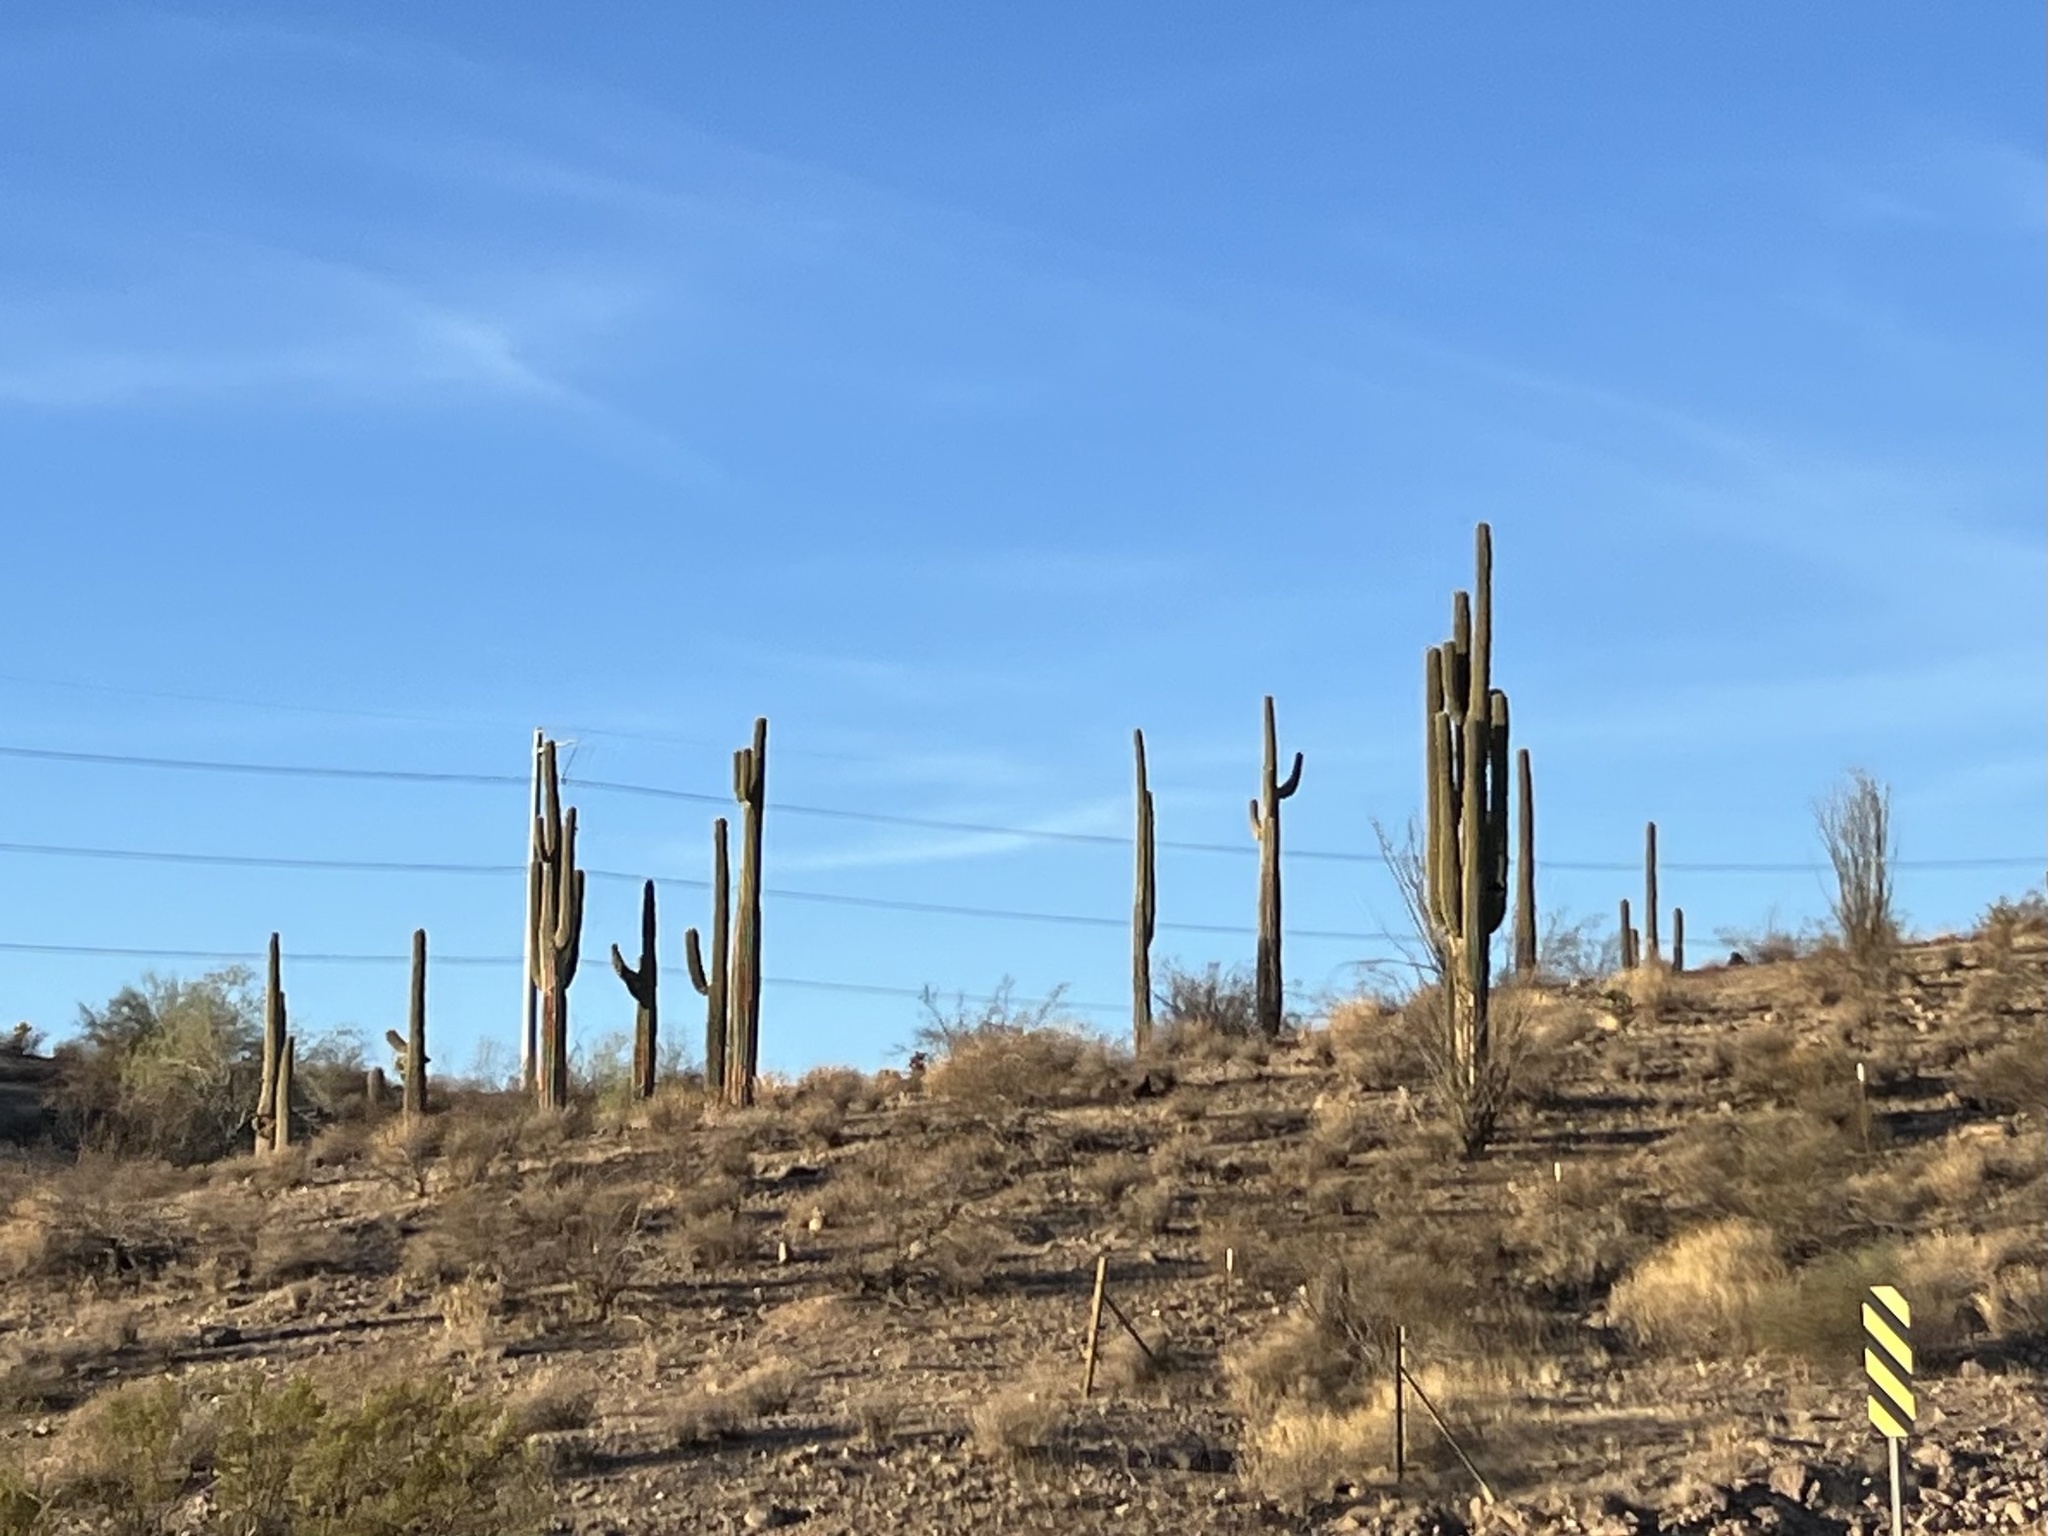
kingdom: Plantae
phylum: Tracheophyta
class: Magnoliopsida
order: Caryophyllales
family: Cactaceae
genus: Carnegiea
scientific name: Carnegiea gigantea
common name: Saguaro
